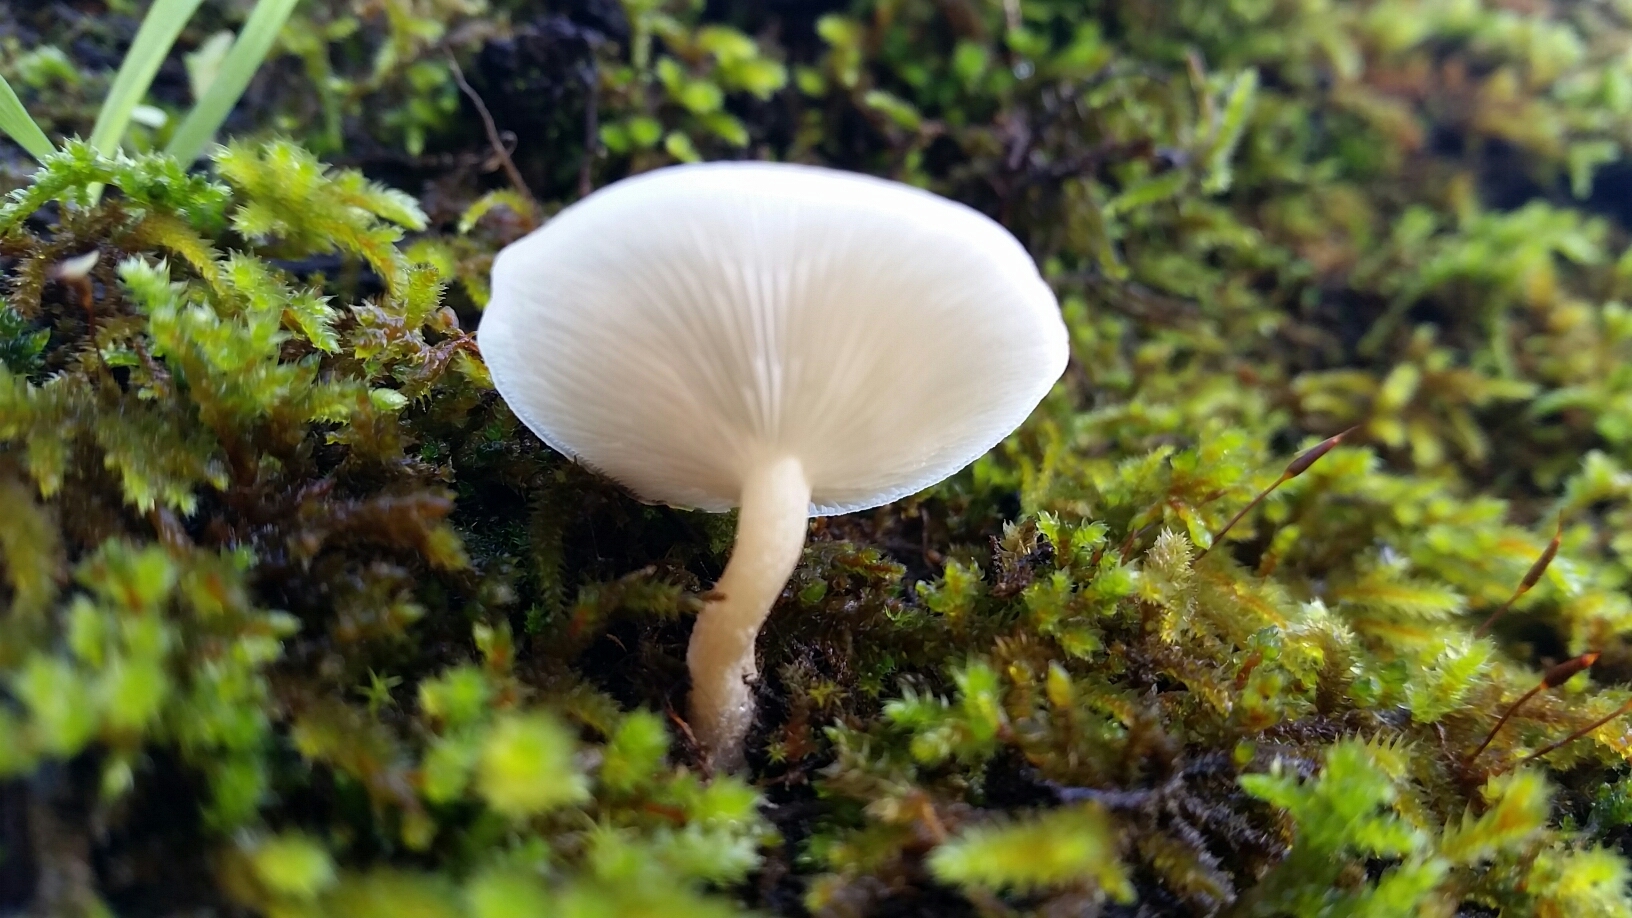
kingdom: Fungi
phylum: Basidiomycota
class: Agaricomycetes
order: Agaricales
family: Tricholomataceae
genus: Clitocybe
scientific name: Clitocybe fragrans
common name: Fragrant funnel
